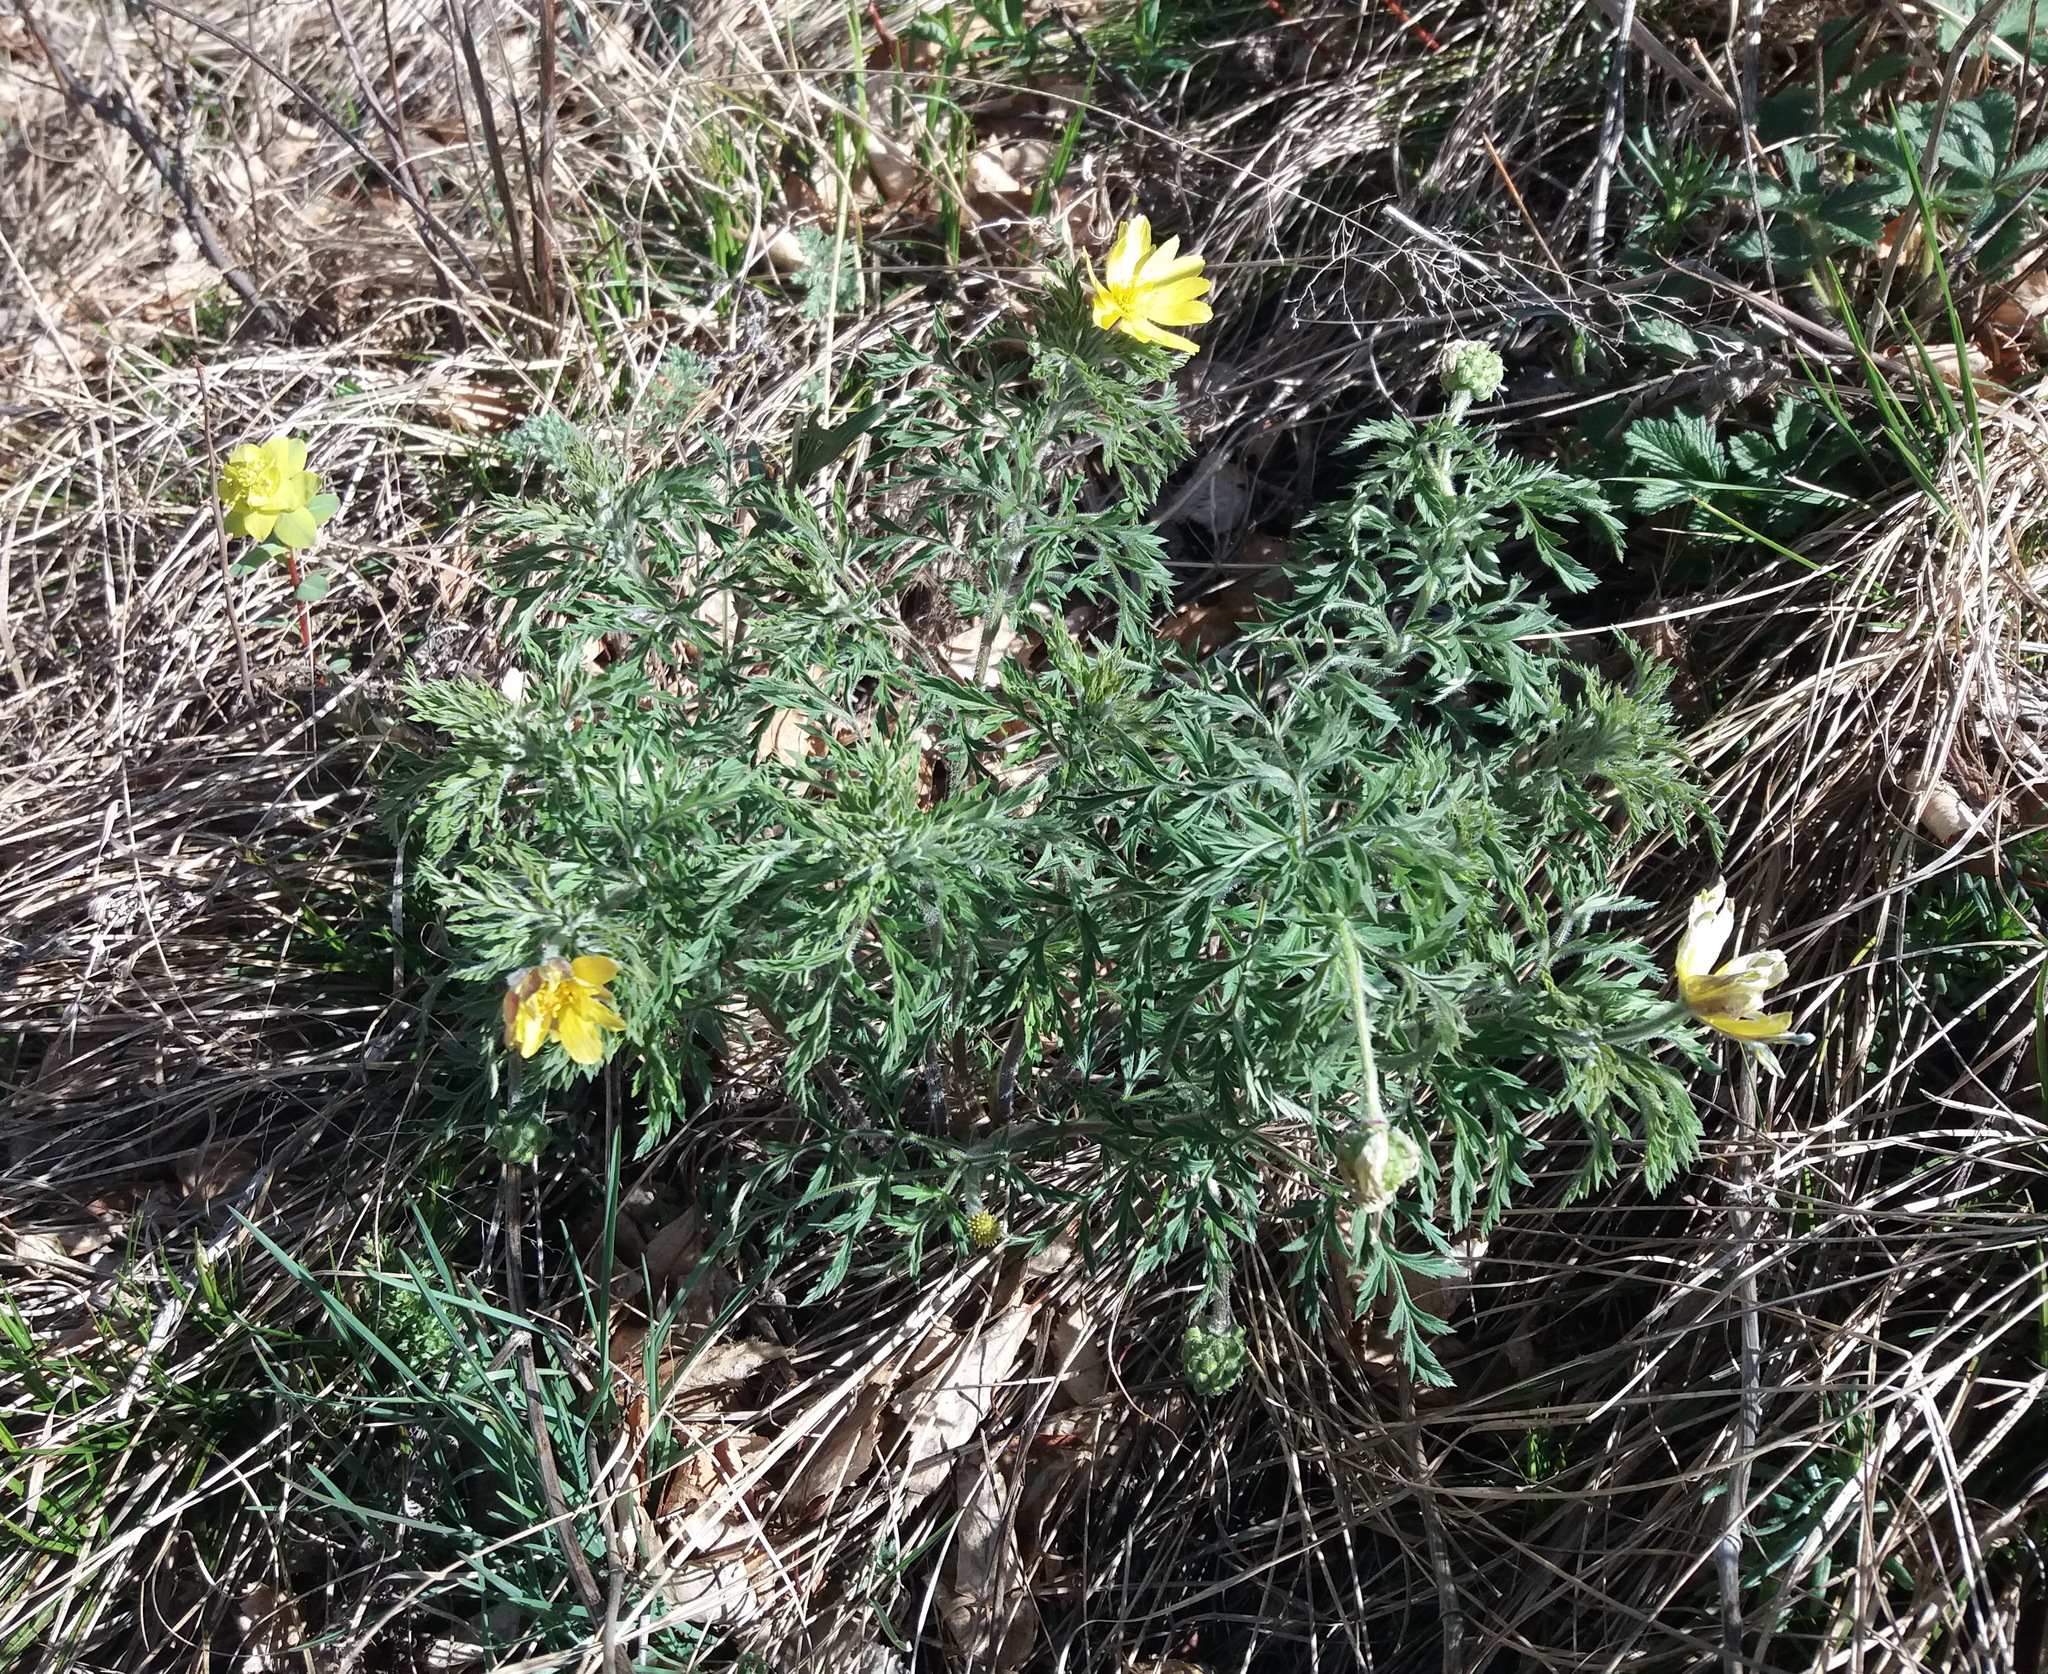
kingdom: Plantae
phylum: Tracheophyta
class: Magnoliopsida
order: Ranunculales
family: Ranunculaceae
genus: Adonis
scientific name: Adonis villosa
